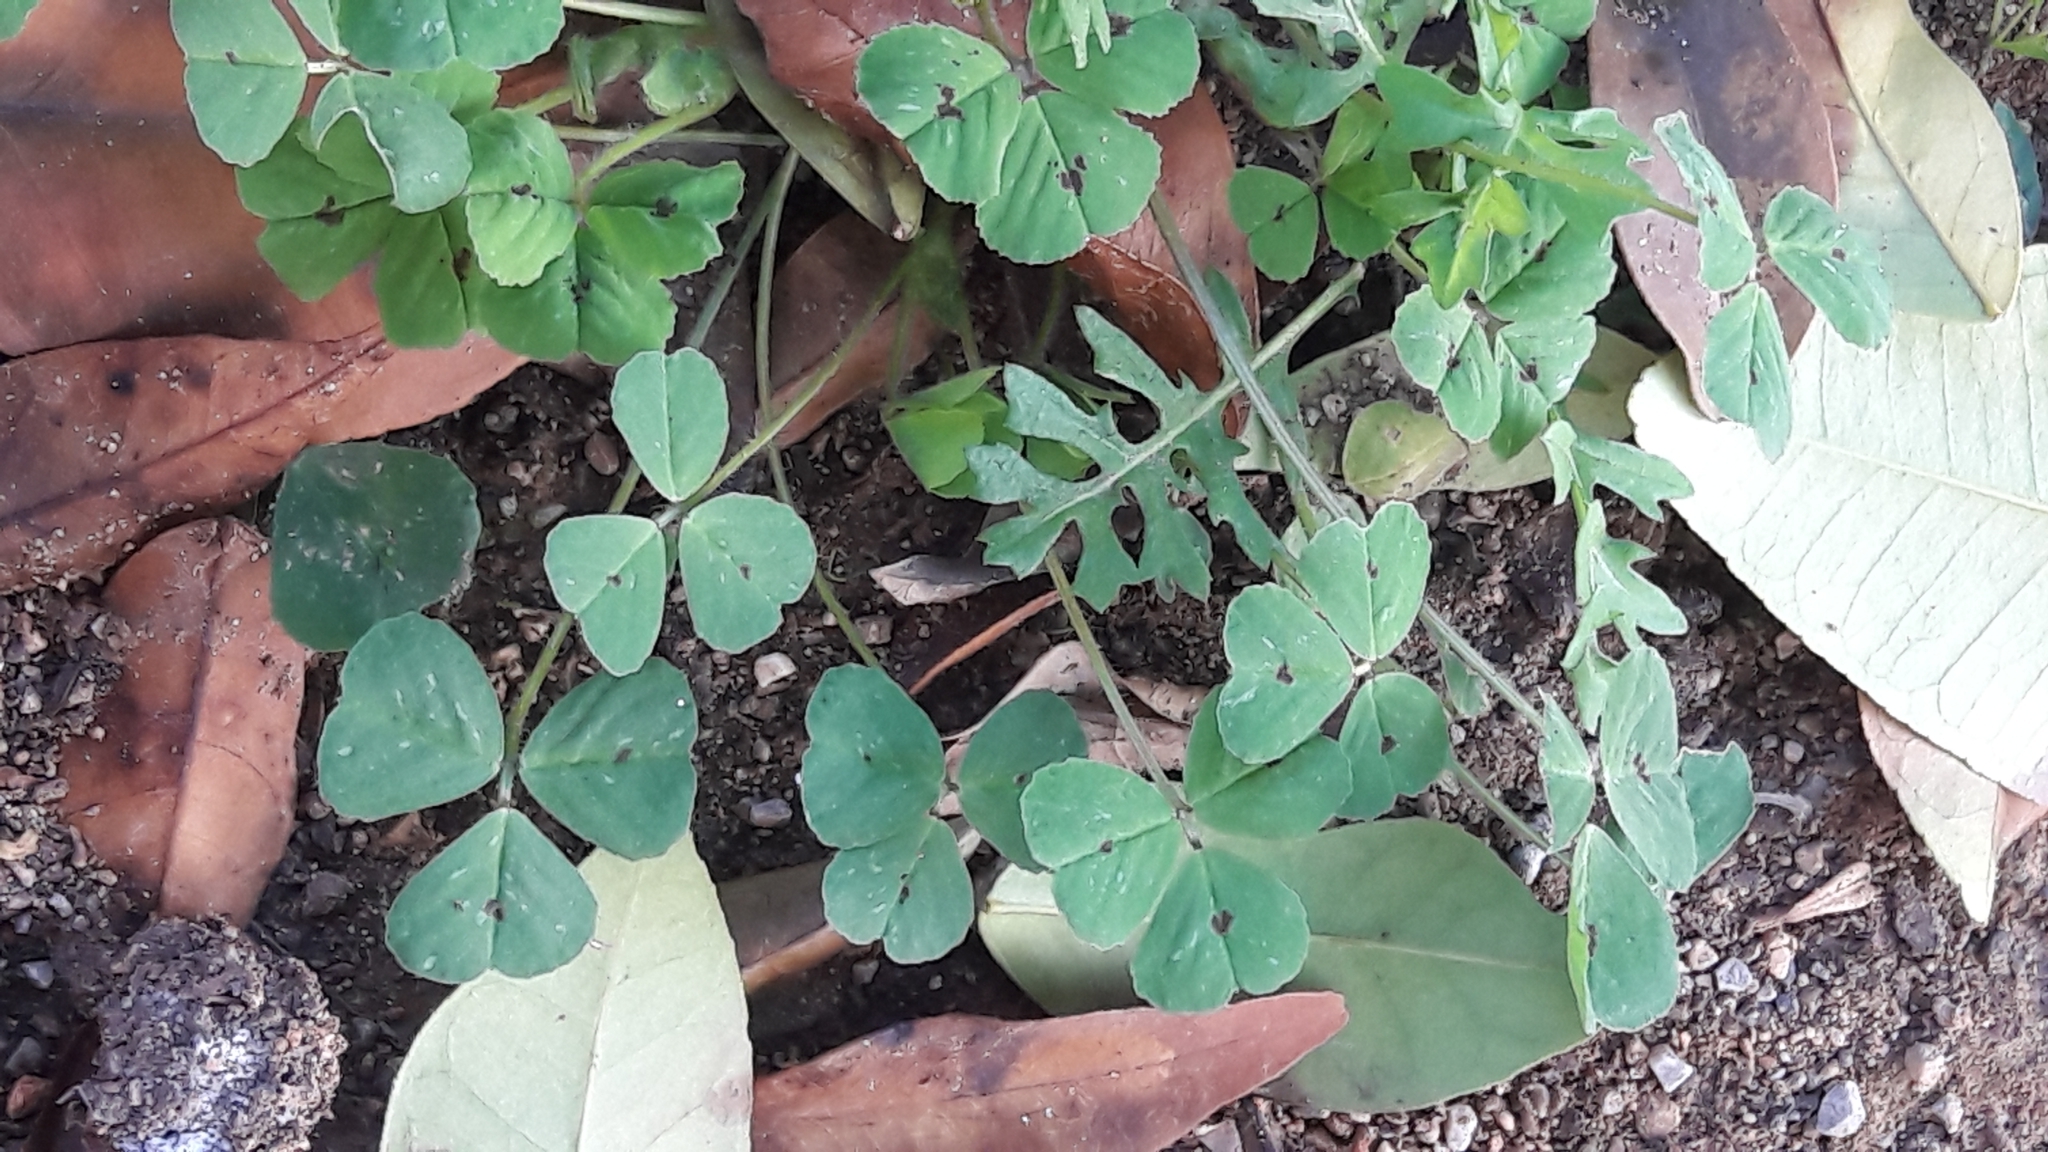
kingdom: Plantae
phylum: Tracheophyta
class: Magnoliopsida
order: Fabales
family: Fabaceae
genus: Medicago
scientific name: Medicago arabica
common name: Spotted medick
